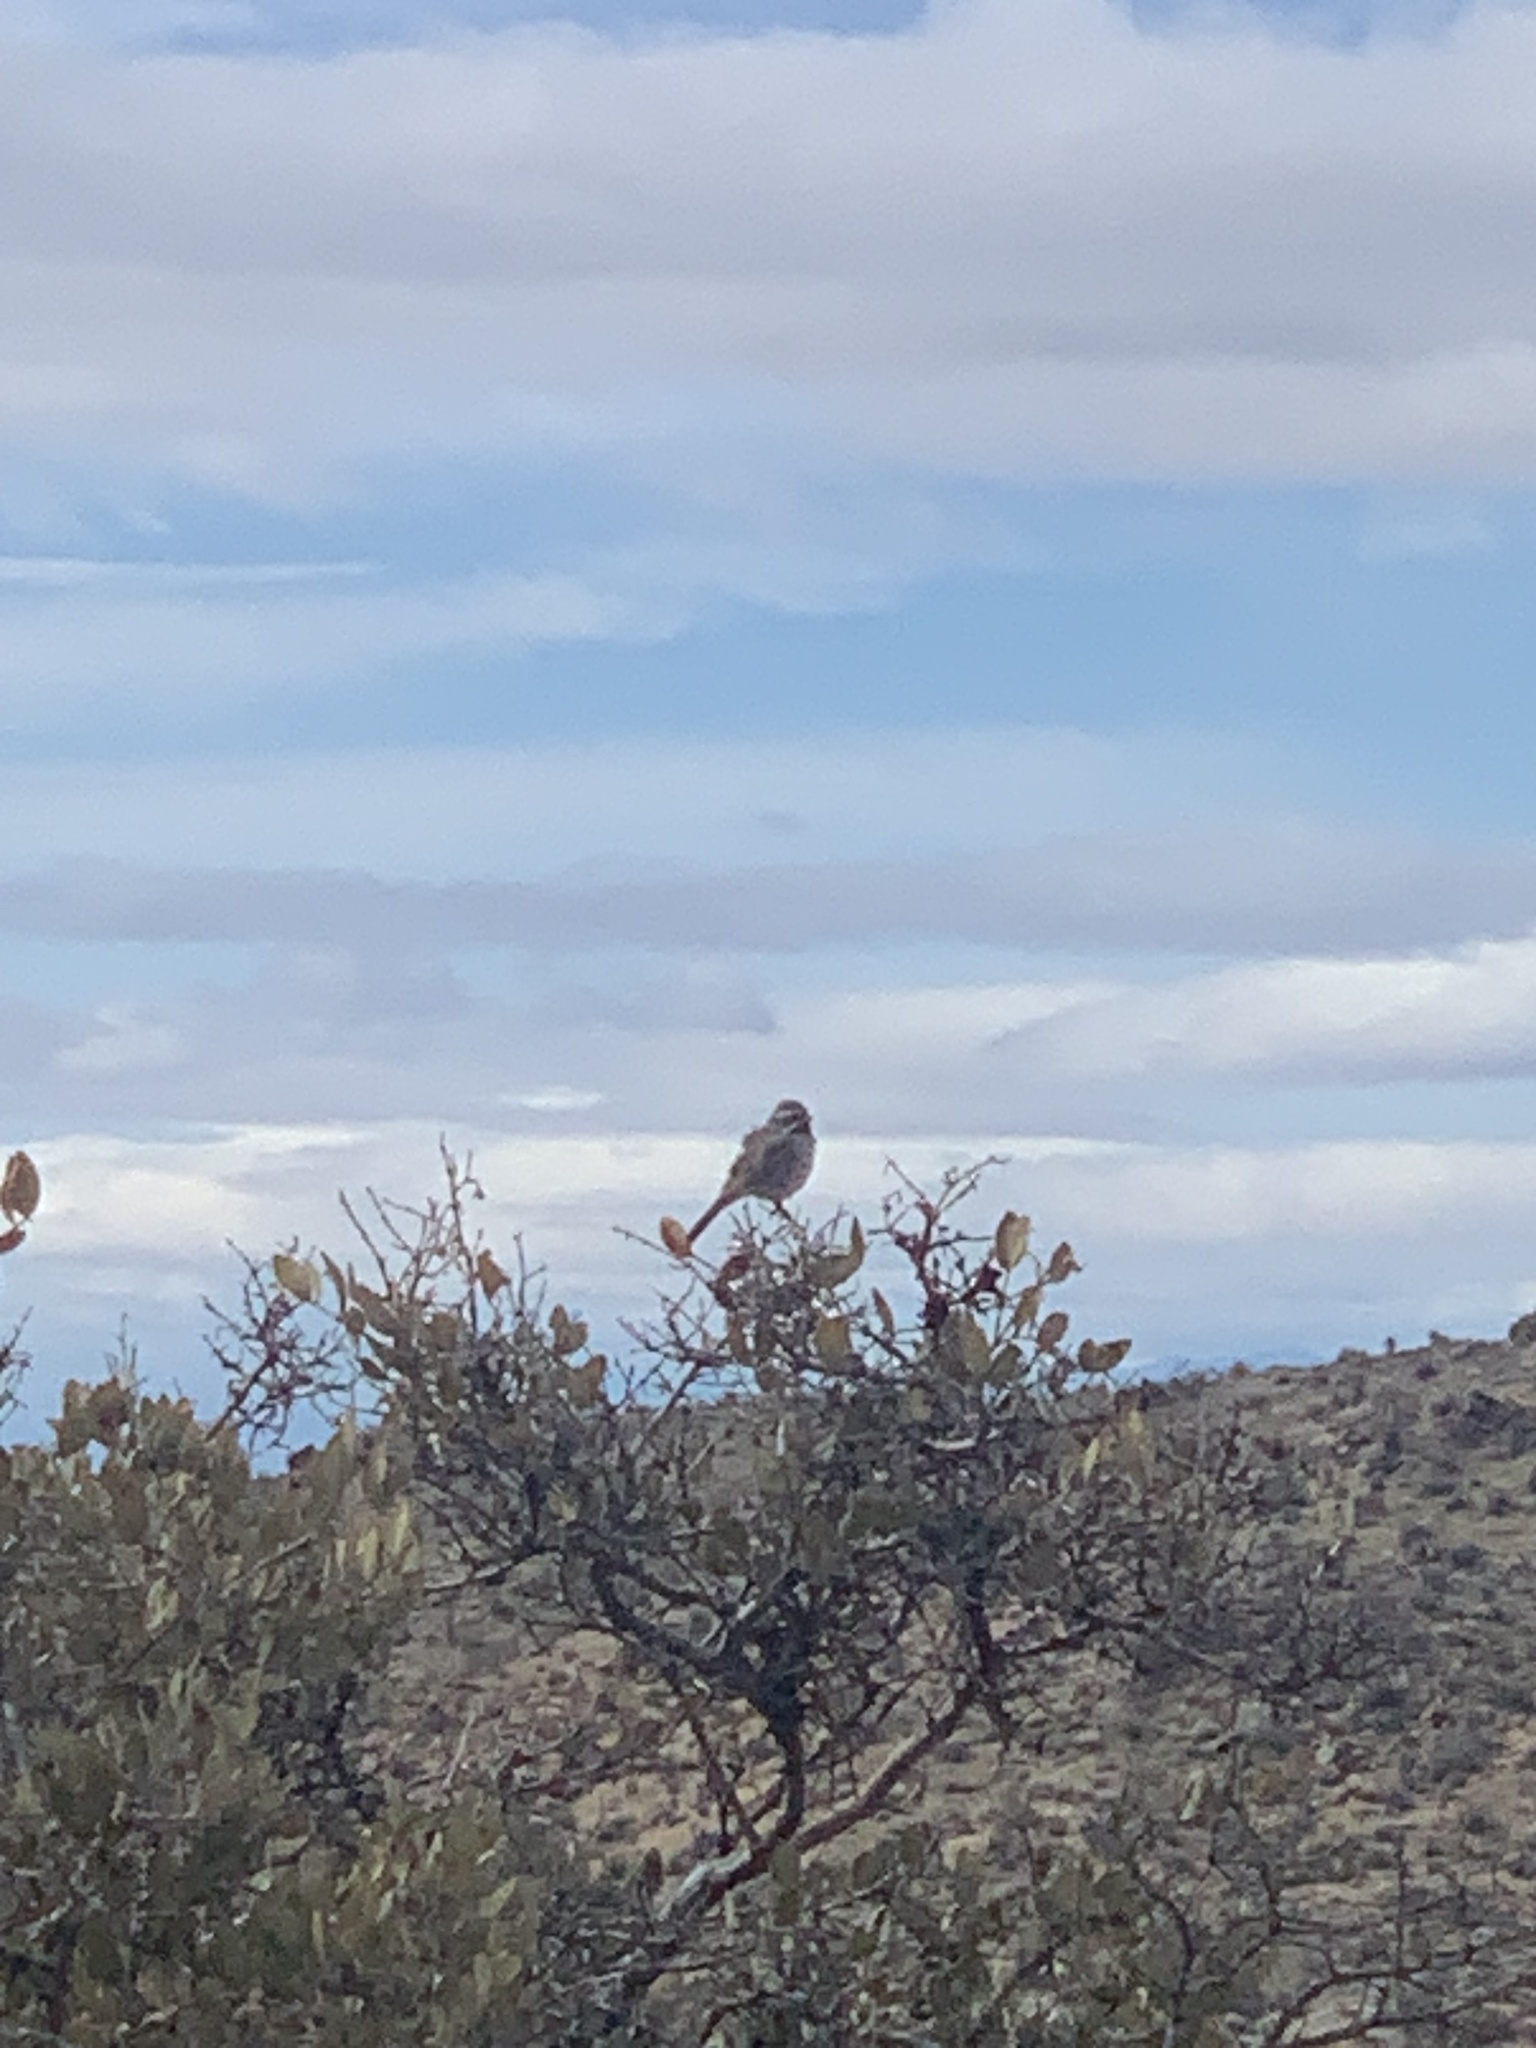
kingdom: Animalia
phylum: Chordata
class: Aves
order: Passeriformes
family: Passerellidae
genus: Amphispiza
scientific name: Amphispiza bilineata
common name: Black-throated sparrow
